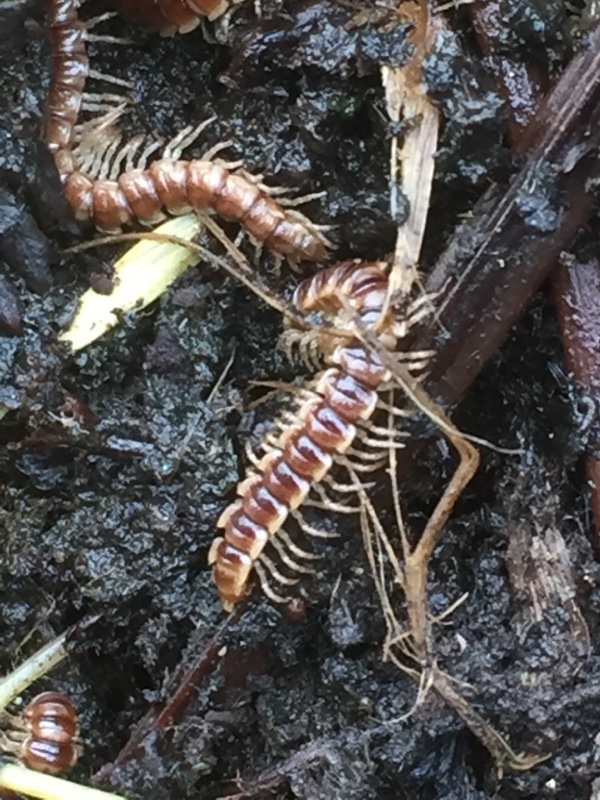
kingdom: Animalia
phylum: Arthropoda
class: Diplopoda
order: Polydesmida
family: Paradoxosomatidae
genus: Oxidus
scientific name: Oxidus gracilis
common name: Greenhouse millipede
